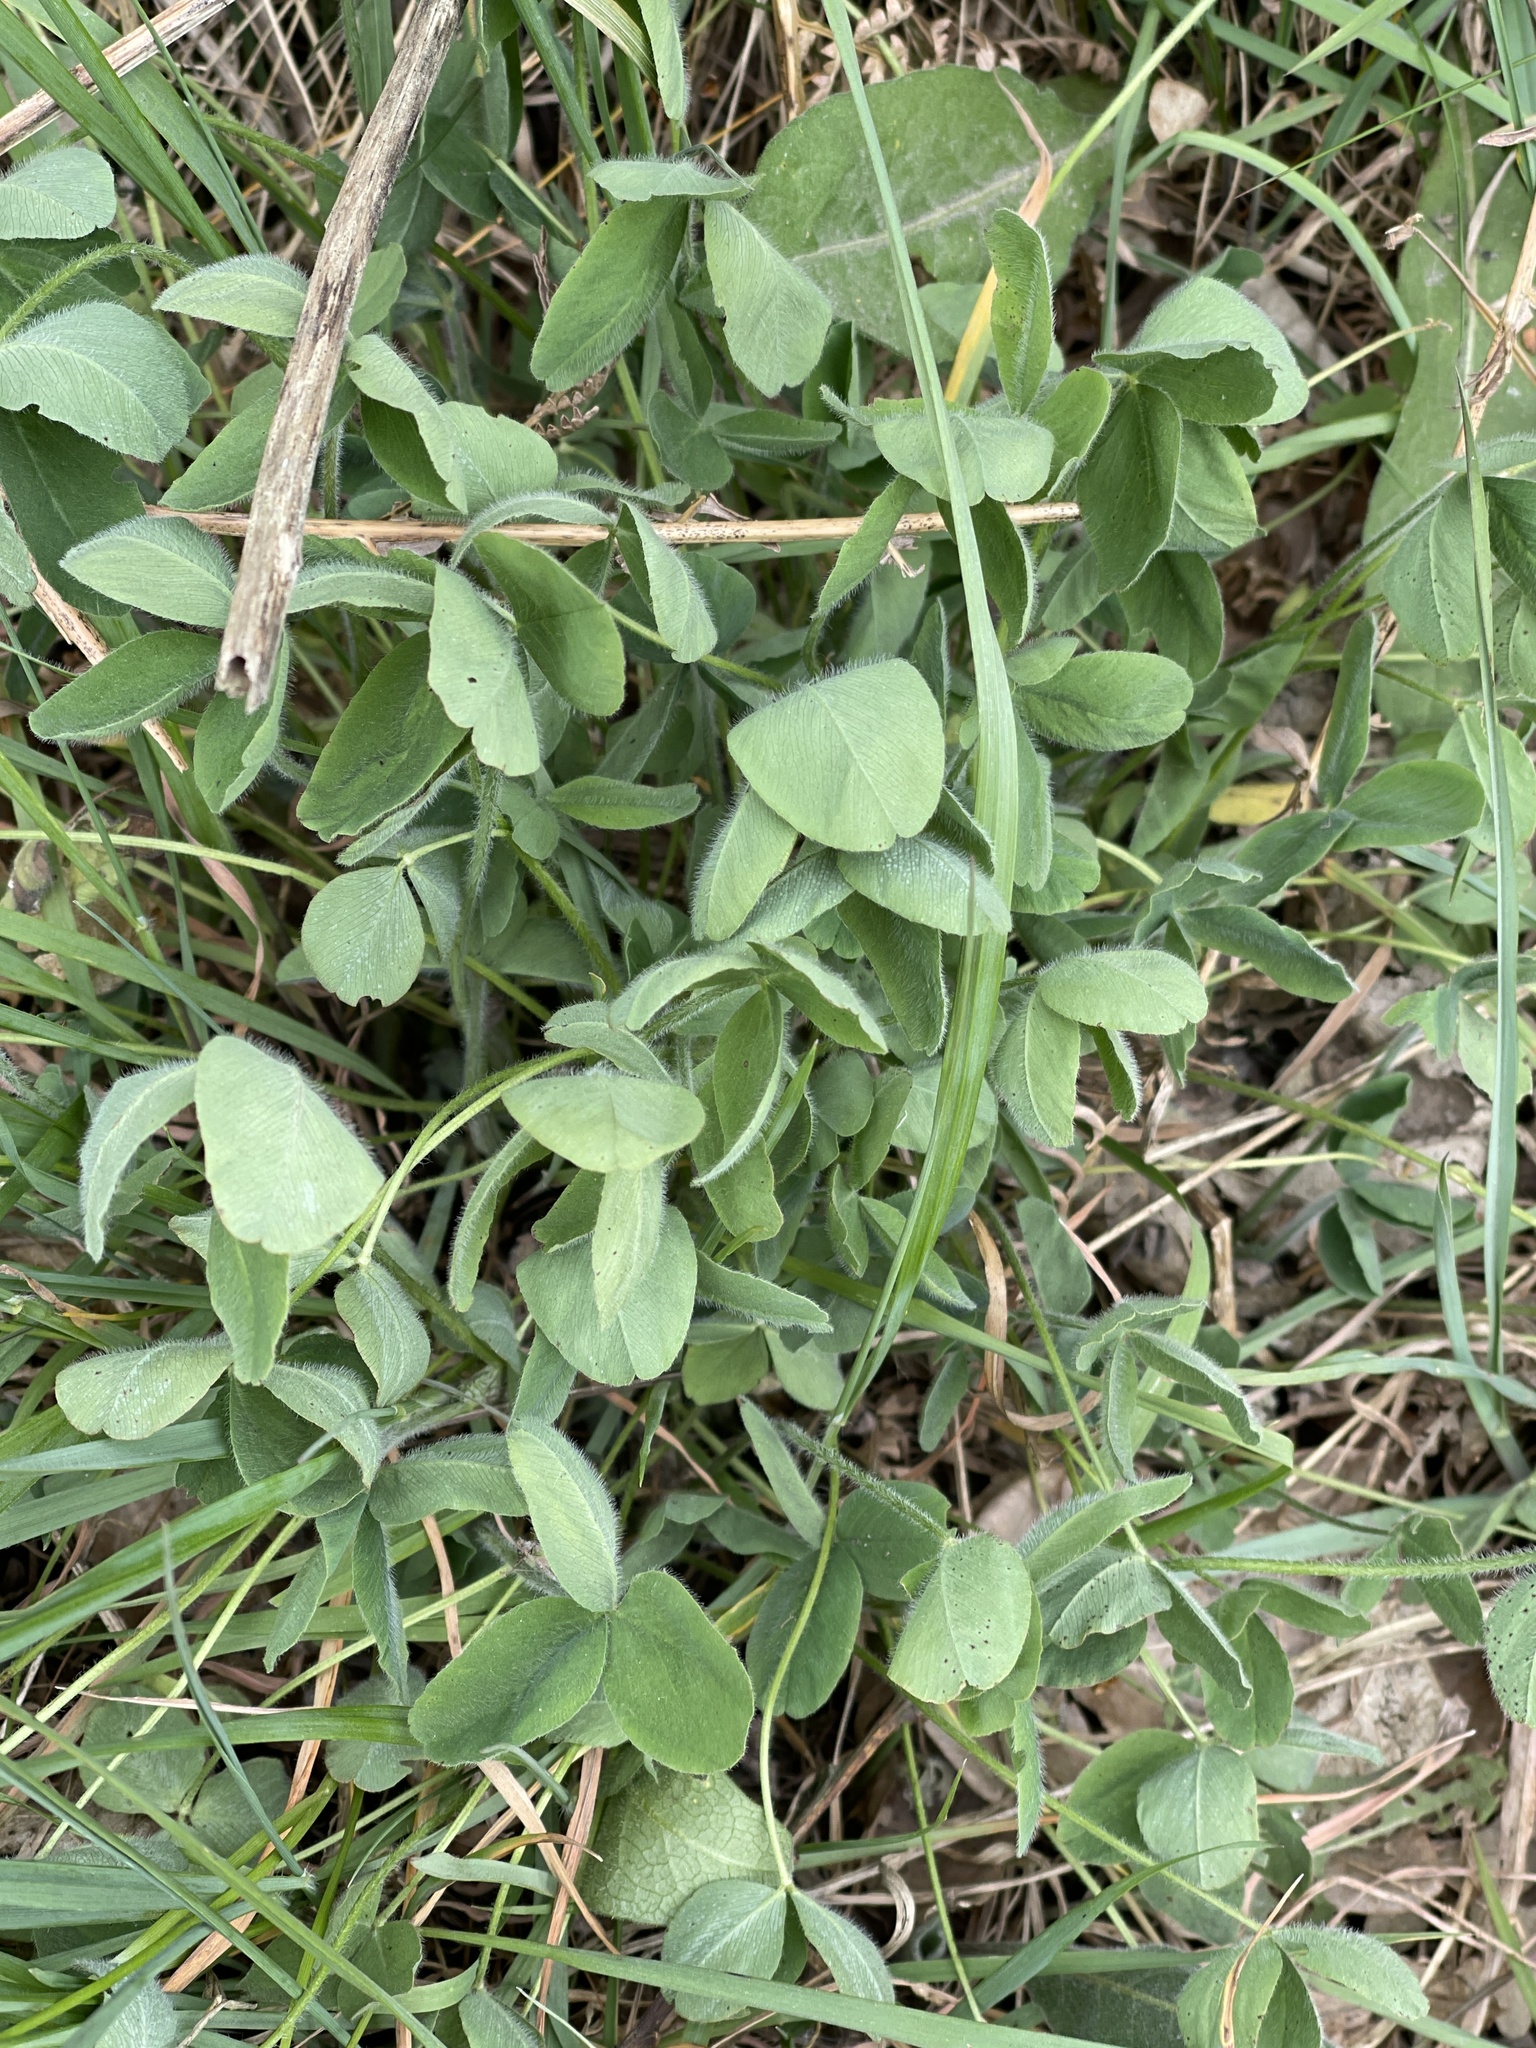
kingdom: Plantae
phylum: Tracheophyta
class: Magnoliopsida
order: Fabales
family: Fabaceae
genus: Trifolium
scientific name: Trifolium pratense
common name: Red clover
